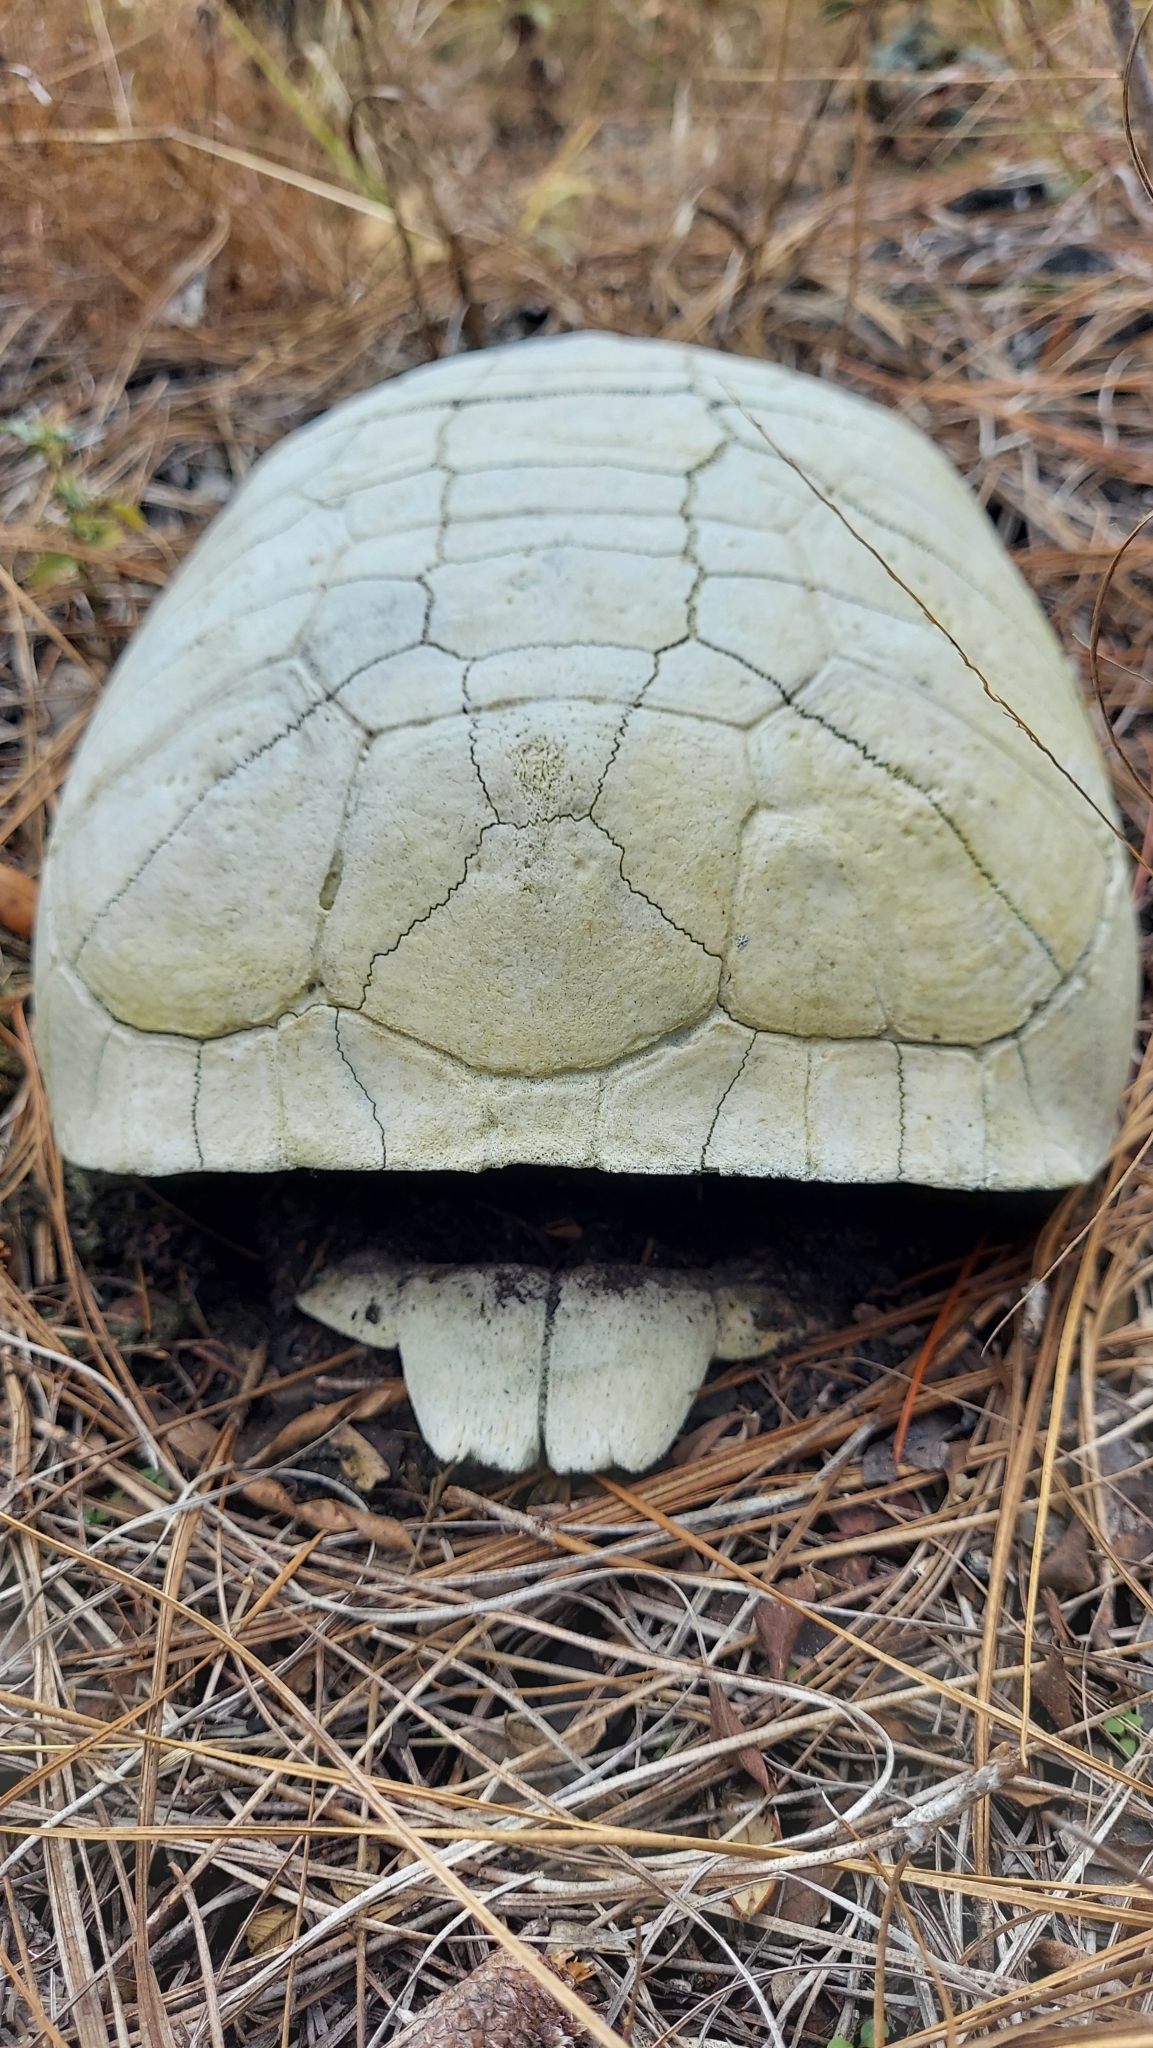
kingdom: Animalia
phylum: Chordata
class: Testudines
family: Testudinidae
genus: Gopherus
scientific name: Gopherus polyphemus
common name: Florida gopher tortoise
